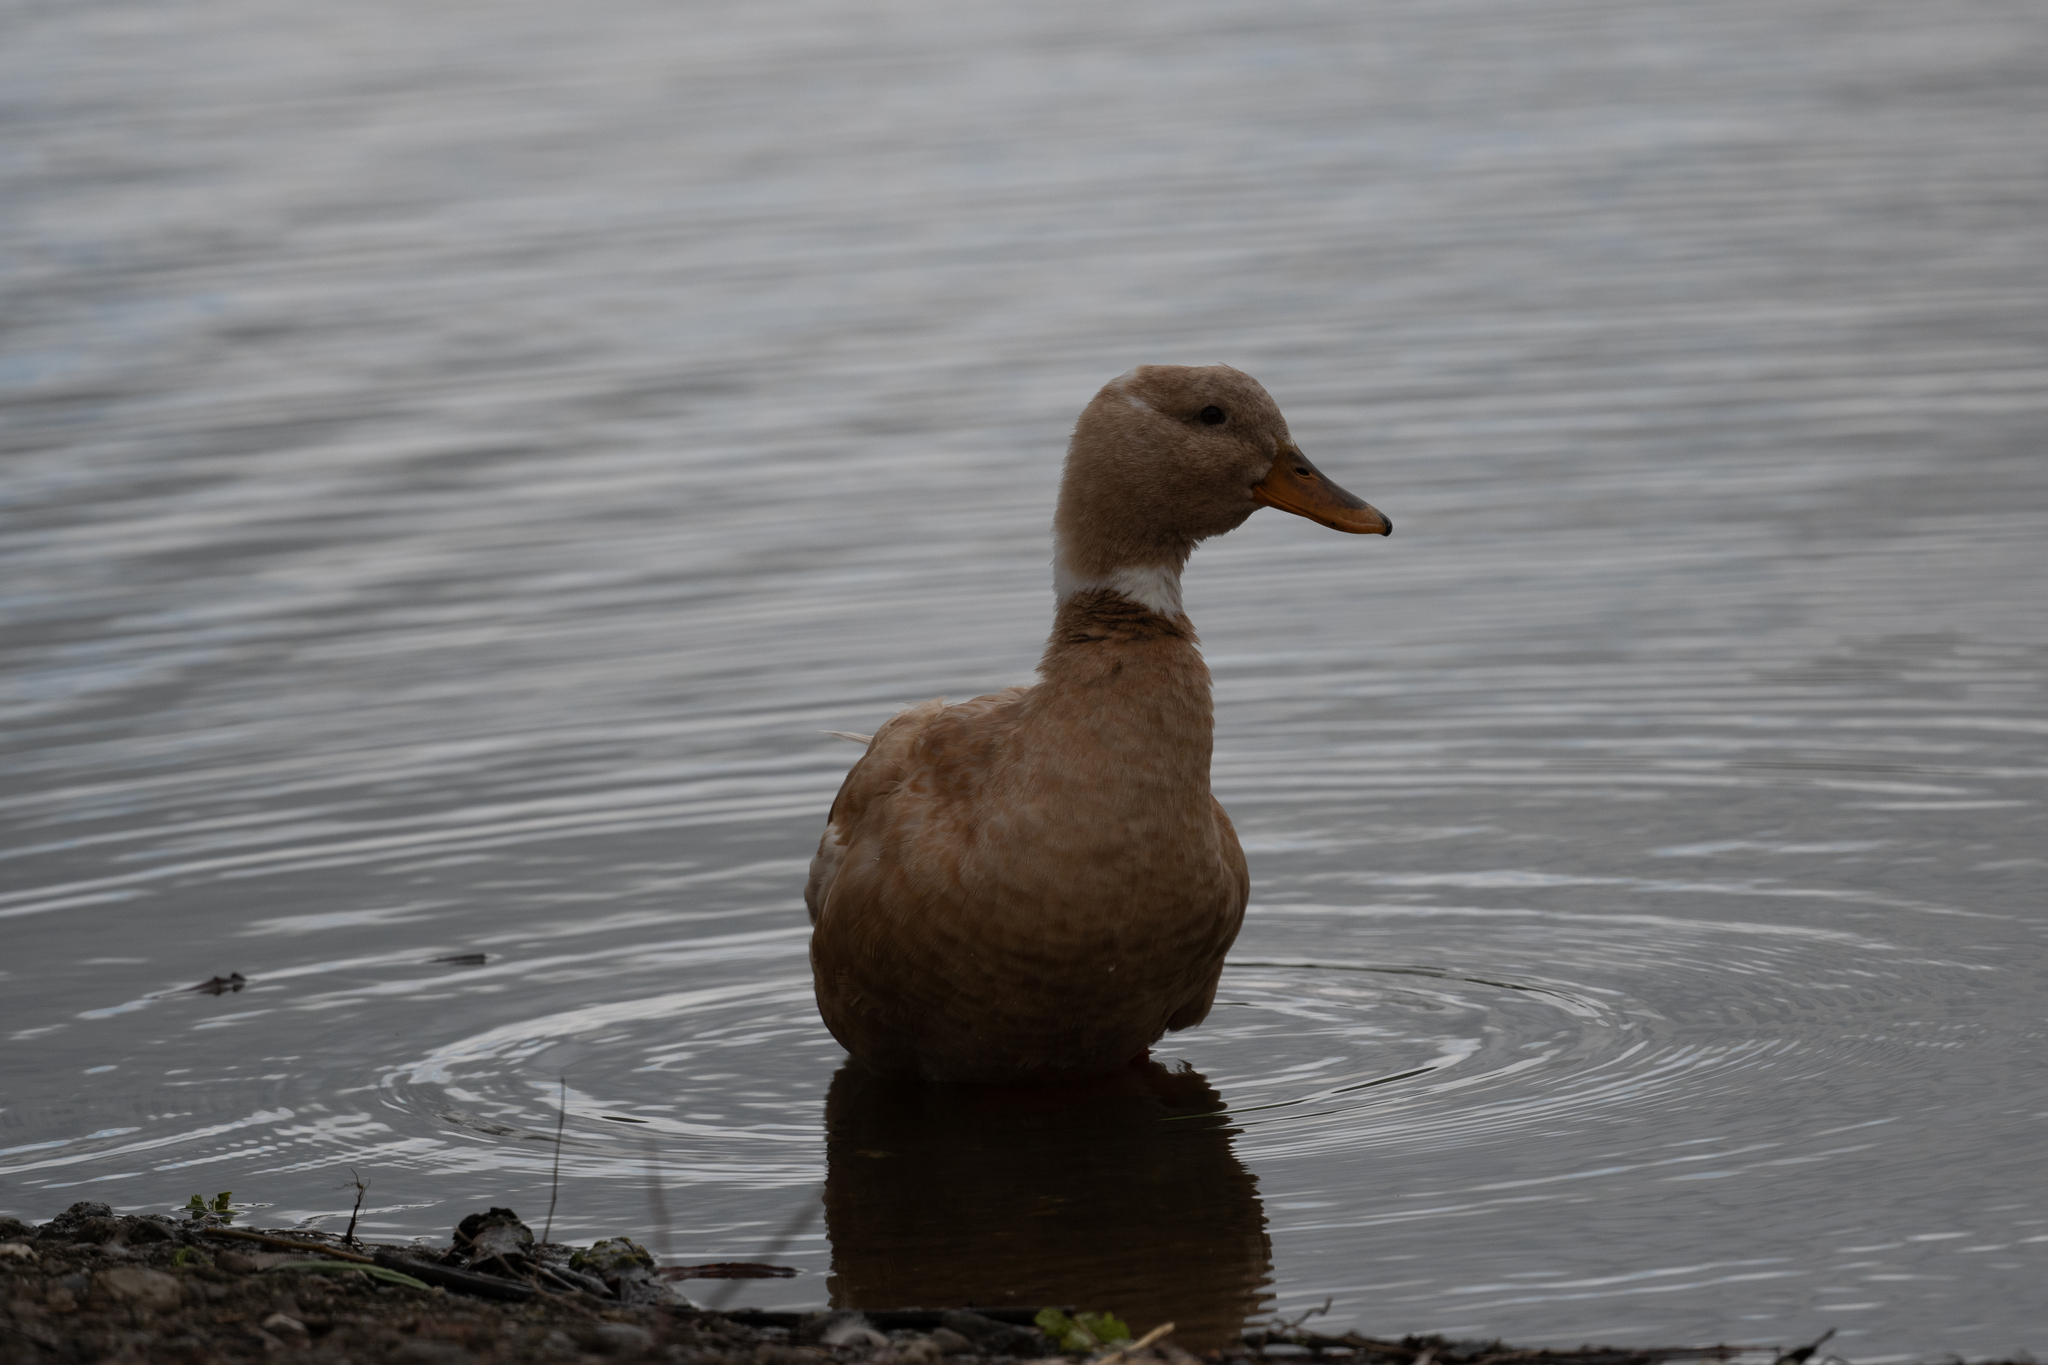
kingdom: Animalia
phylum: Chordata
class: Aves
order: Anseriformes
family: Anatidae
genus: Anas
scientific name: Anas platyrhynchos
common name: Mallard
